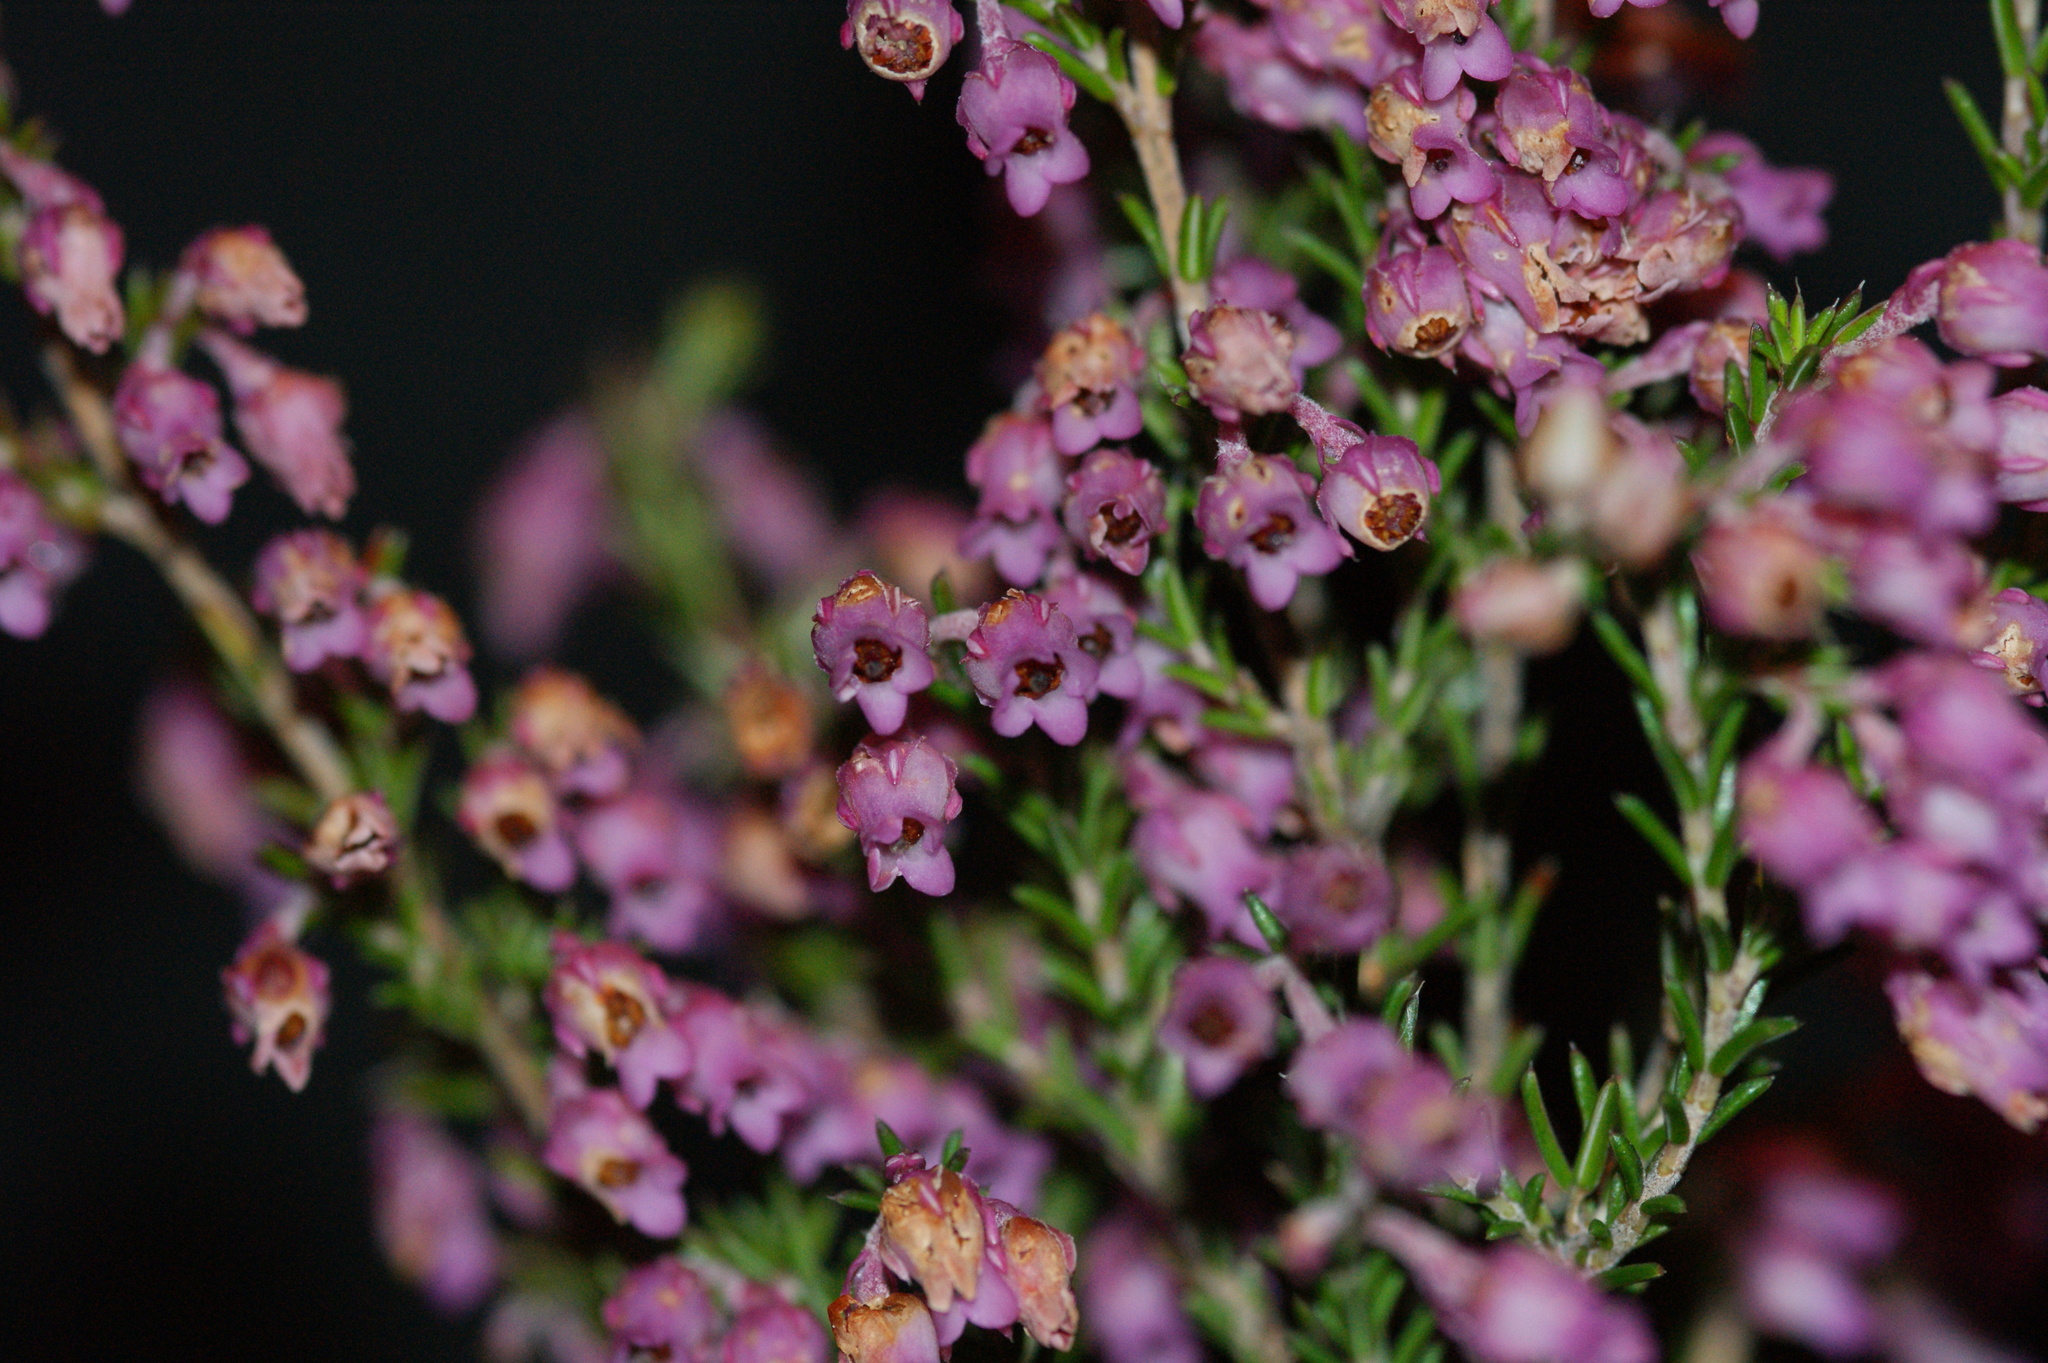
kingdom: Plantae
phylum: Tracheophyta
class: Magnoliopsida
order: Ericales
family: Ericaceae
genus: Erica
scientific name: Erica acuta
